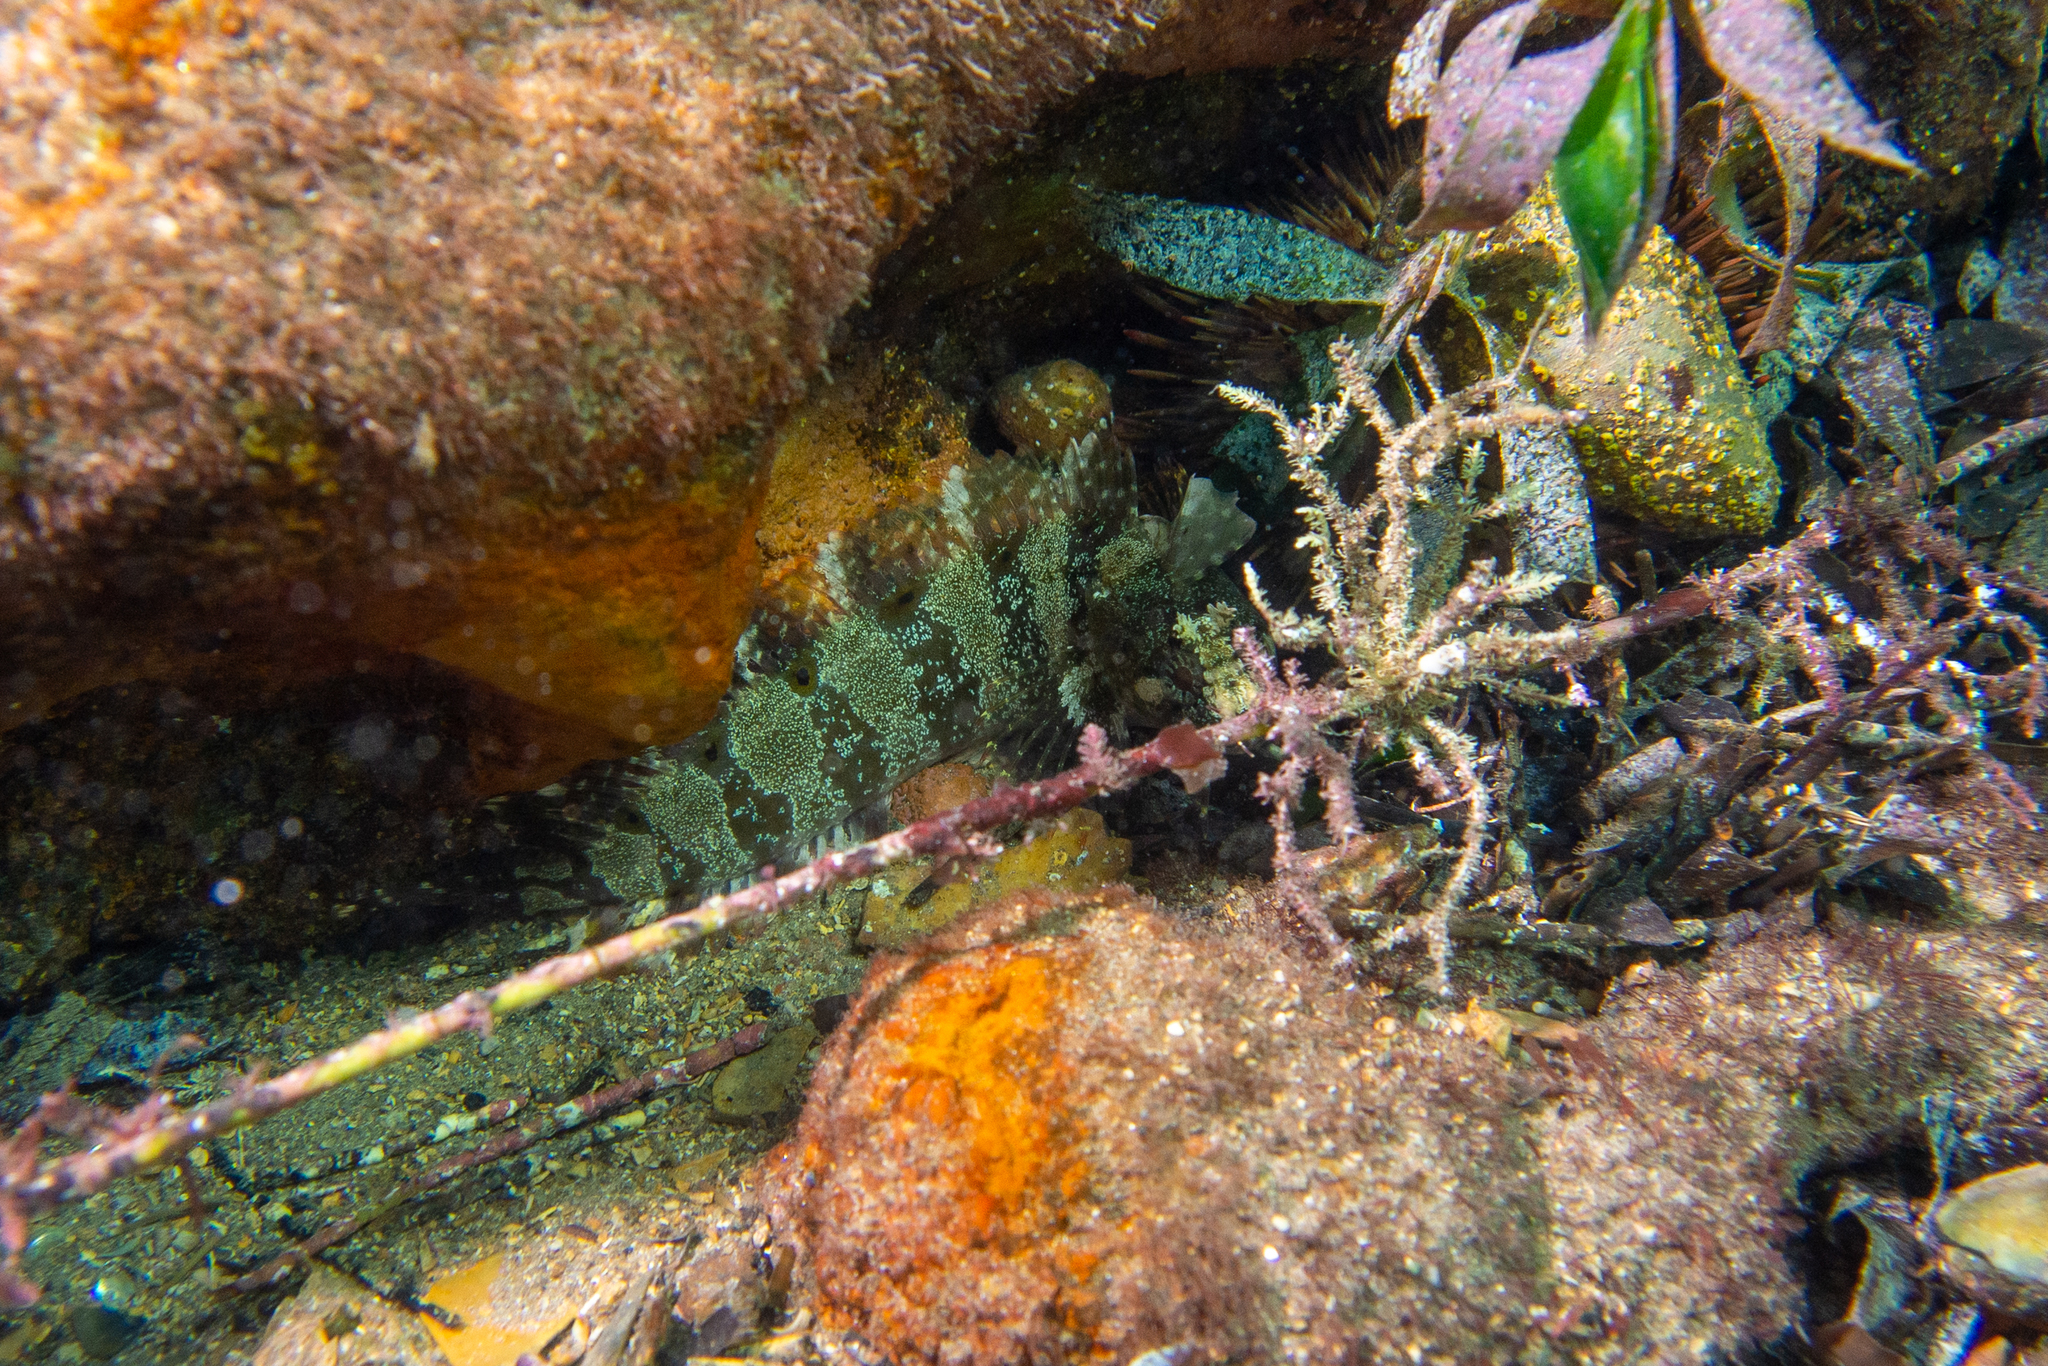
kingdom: Animalia
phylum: Chordata
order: Perciformes
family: Clinidae
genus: Heteroclinus
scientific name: Heteroclinus johnstoni
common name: Johnston's weedfish
